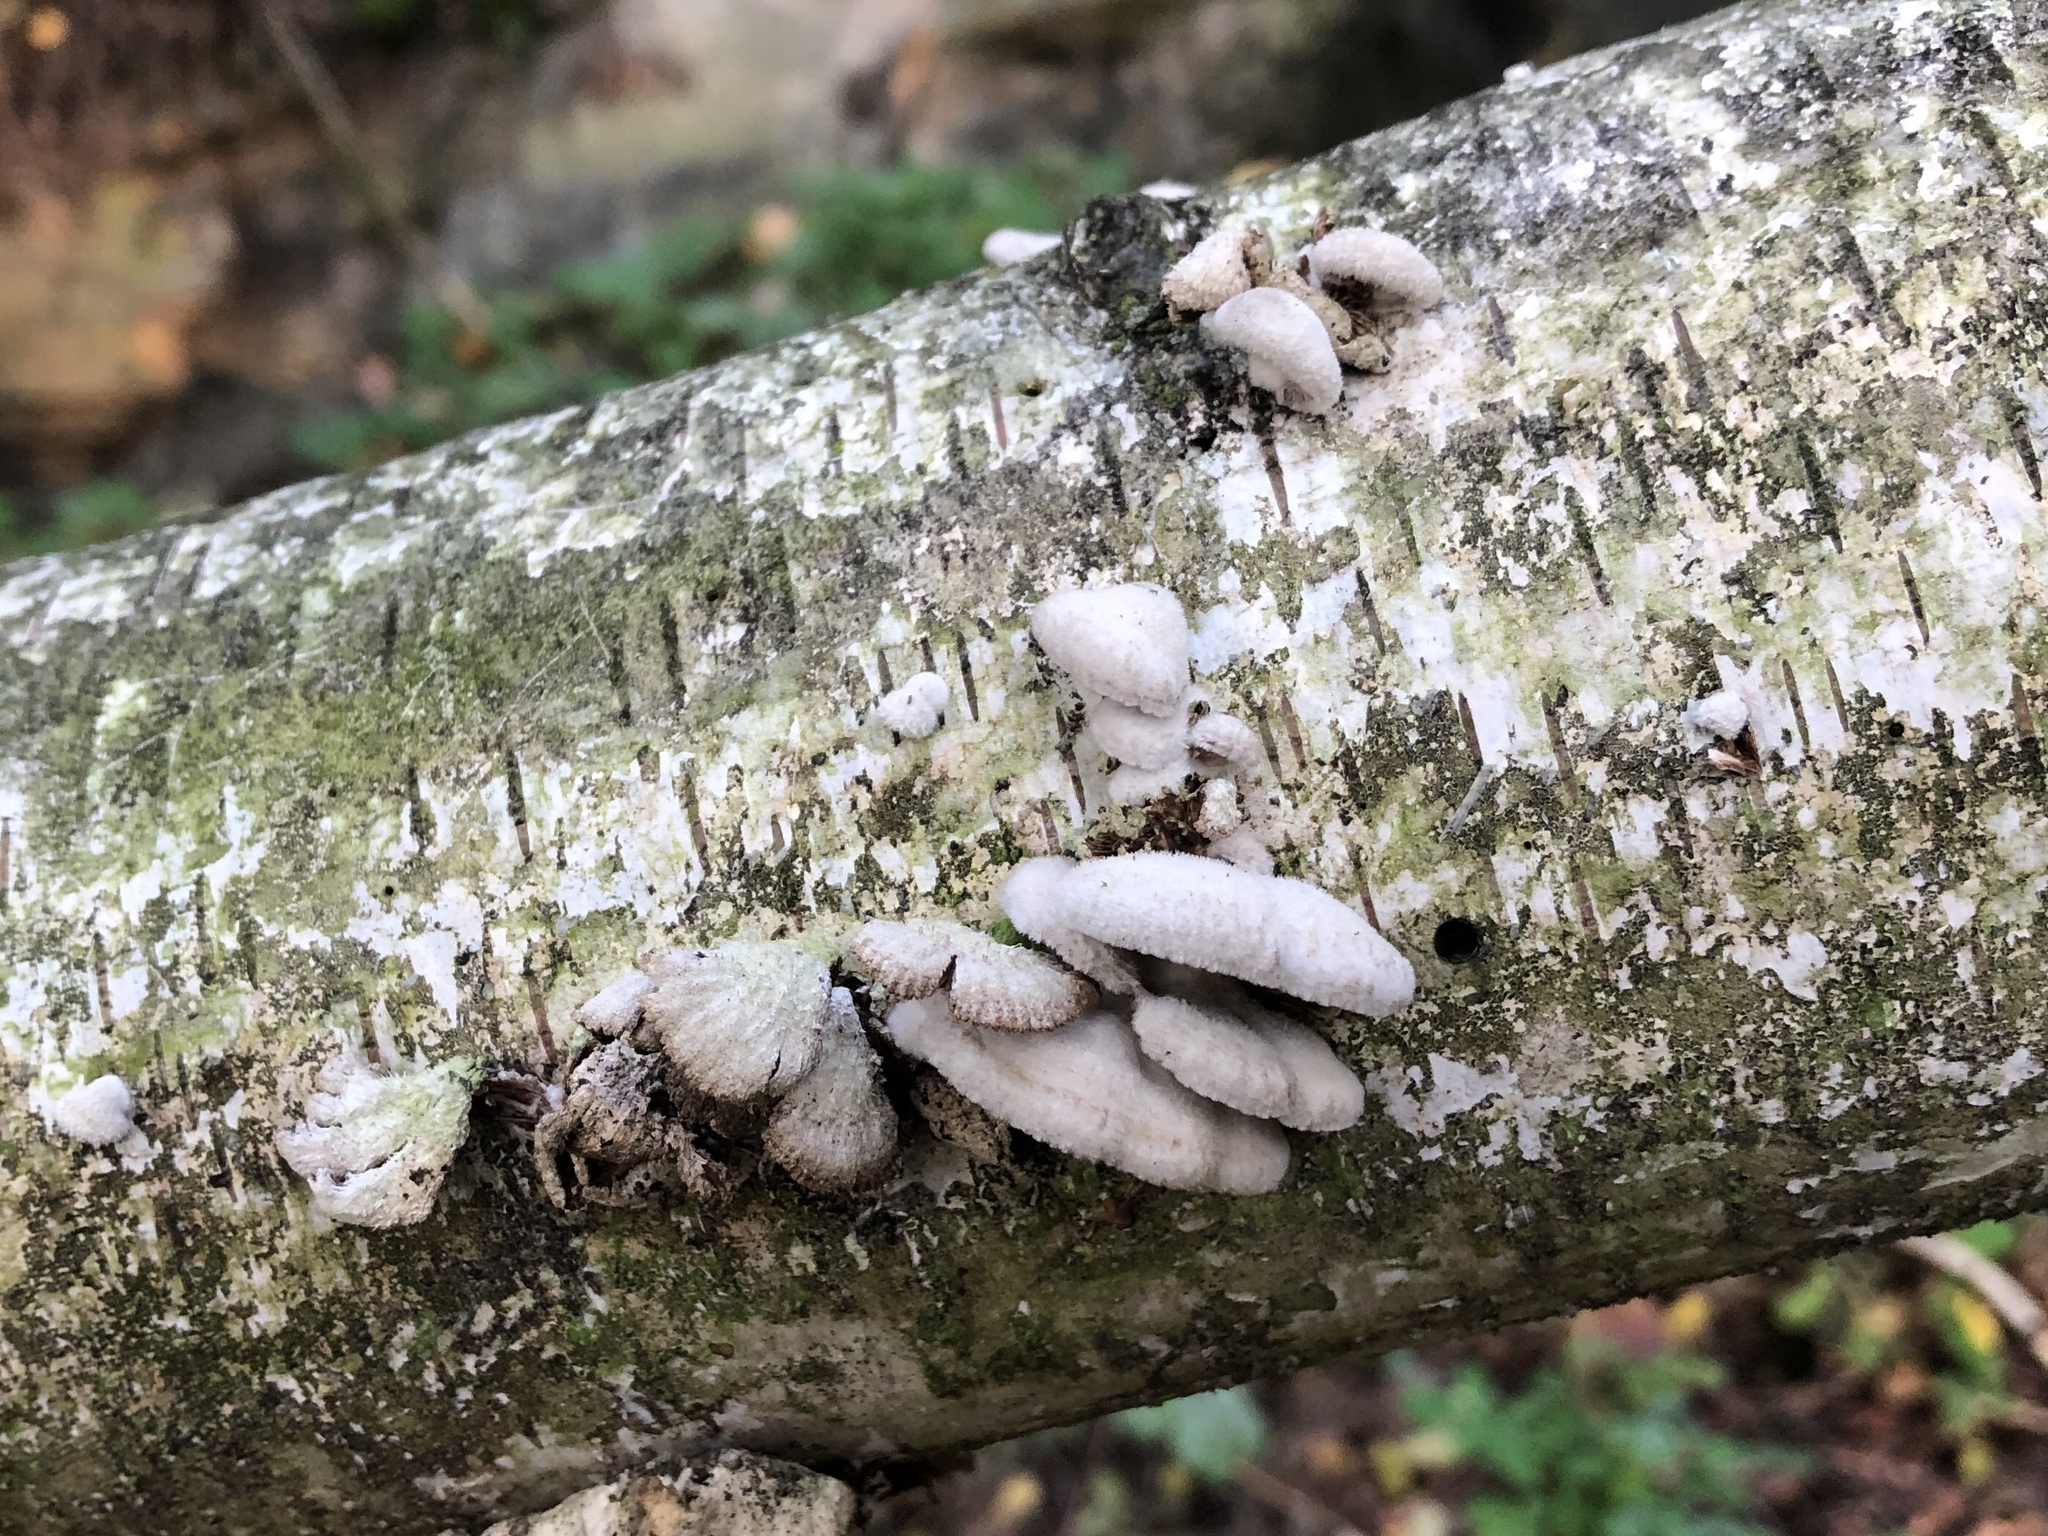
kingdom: Fungi
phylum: Basidiomycota
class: Agaricomycetes
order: Agaricales
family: Schizophyllaceae
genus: Schizophyllum
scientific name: Schizophyllum commune
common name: Common porecrust
